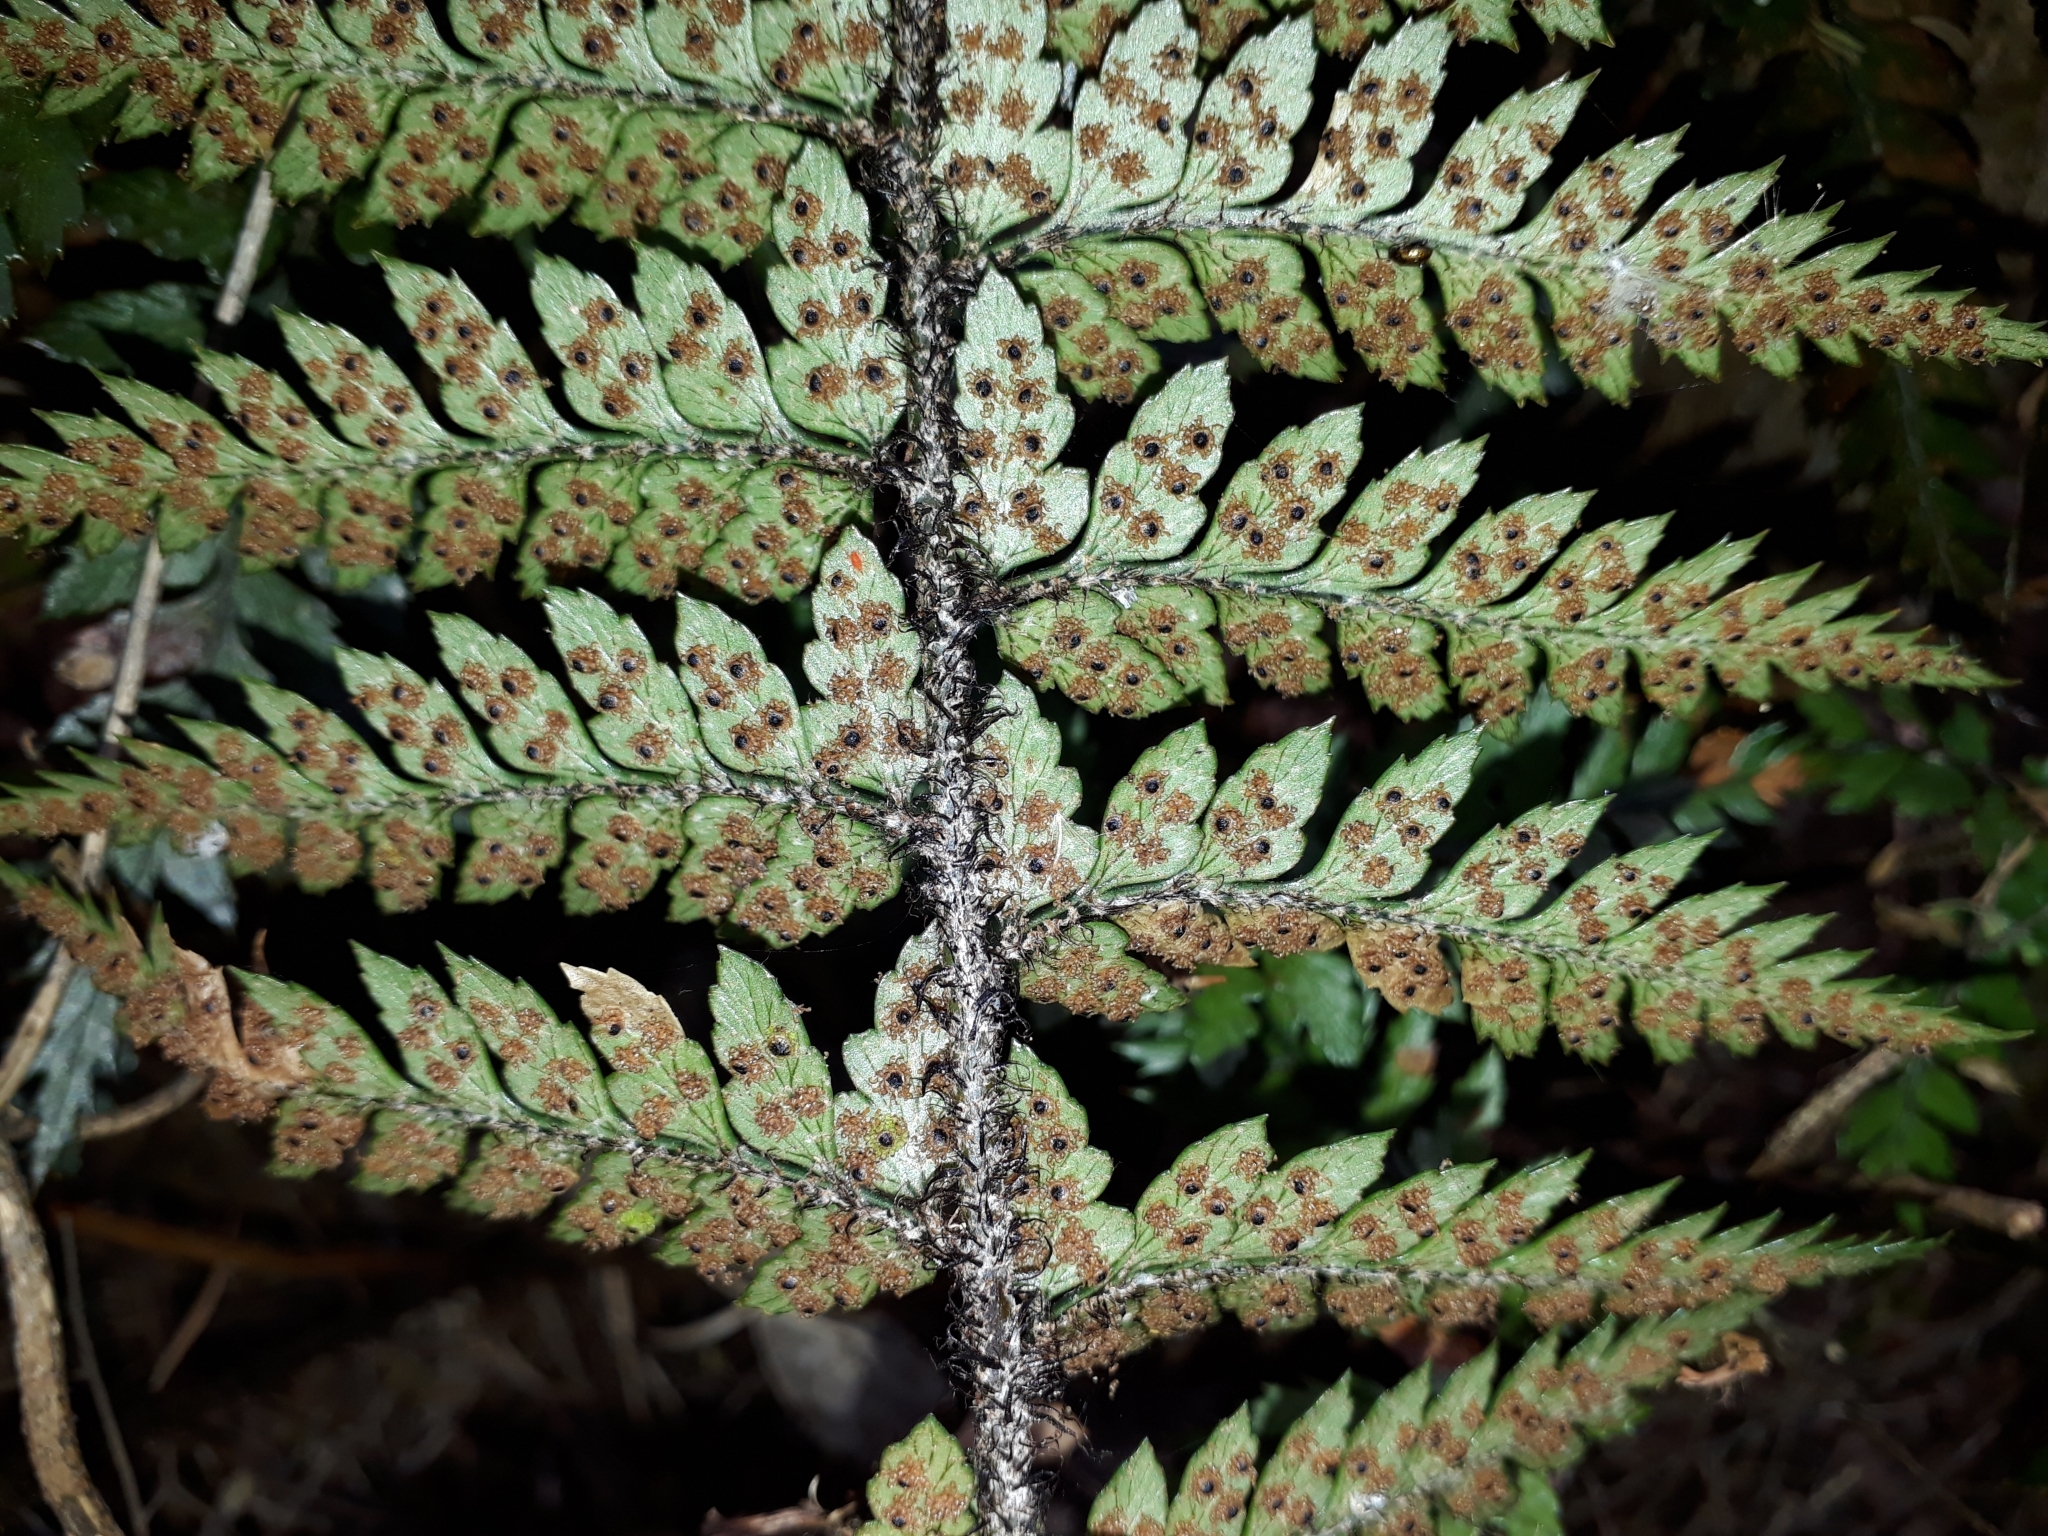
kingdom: Plantae
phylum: Tracheophyta
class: Polypodiopsida
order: Polypodiales
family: Dryopteridaceae
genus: Polystichum
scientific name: Polystichum neozelandicum
